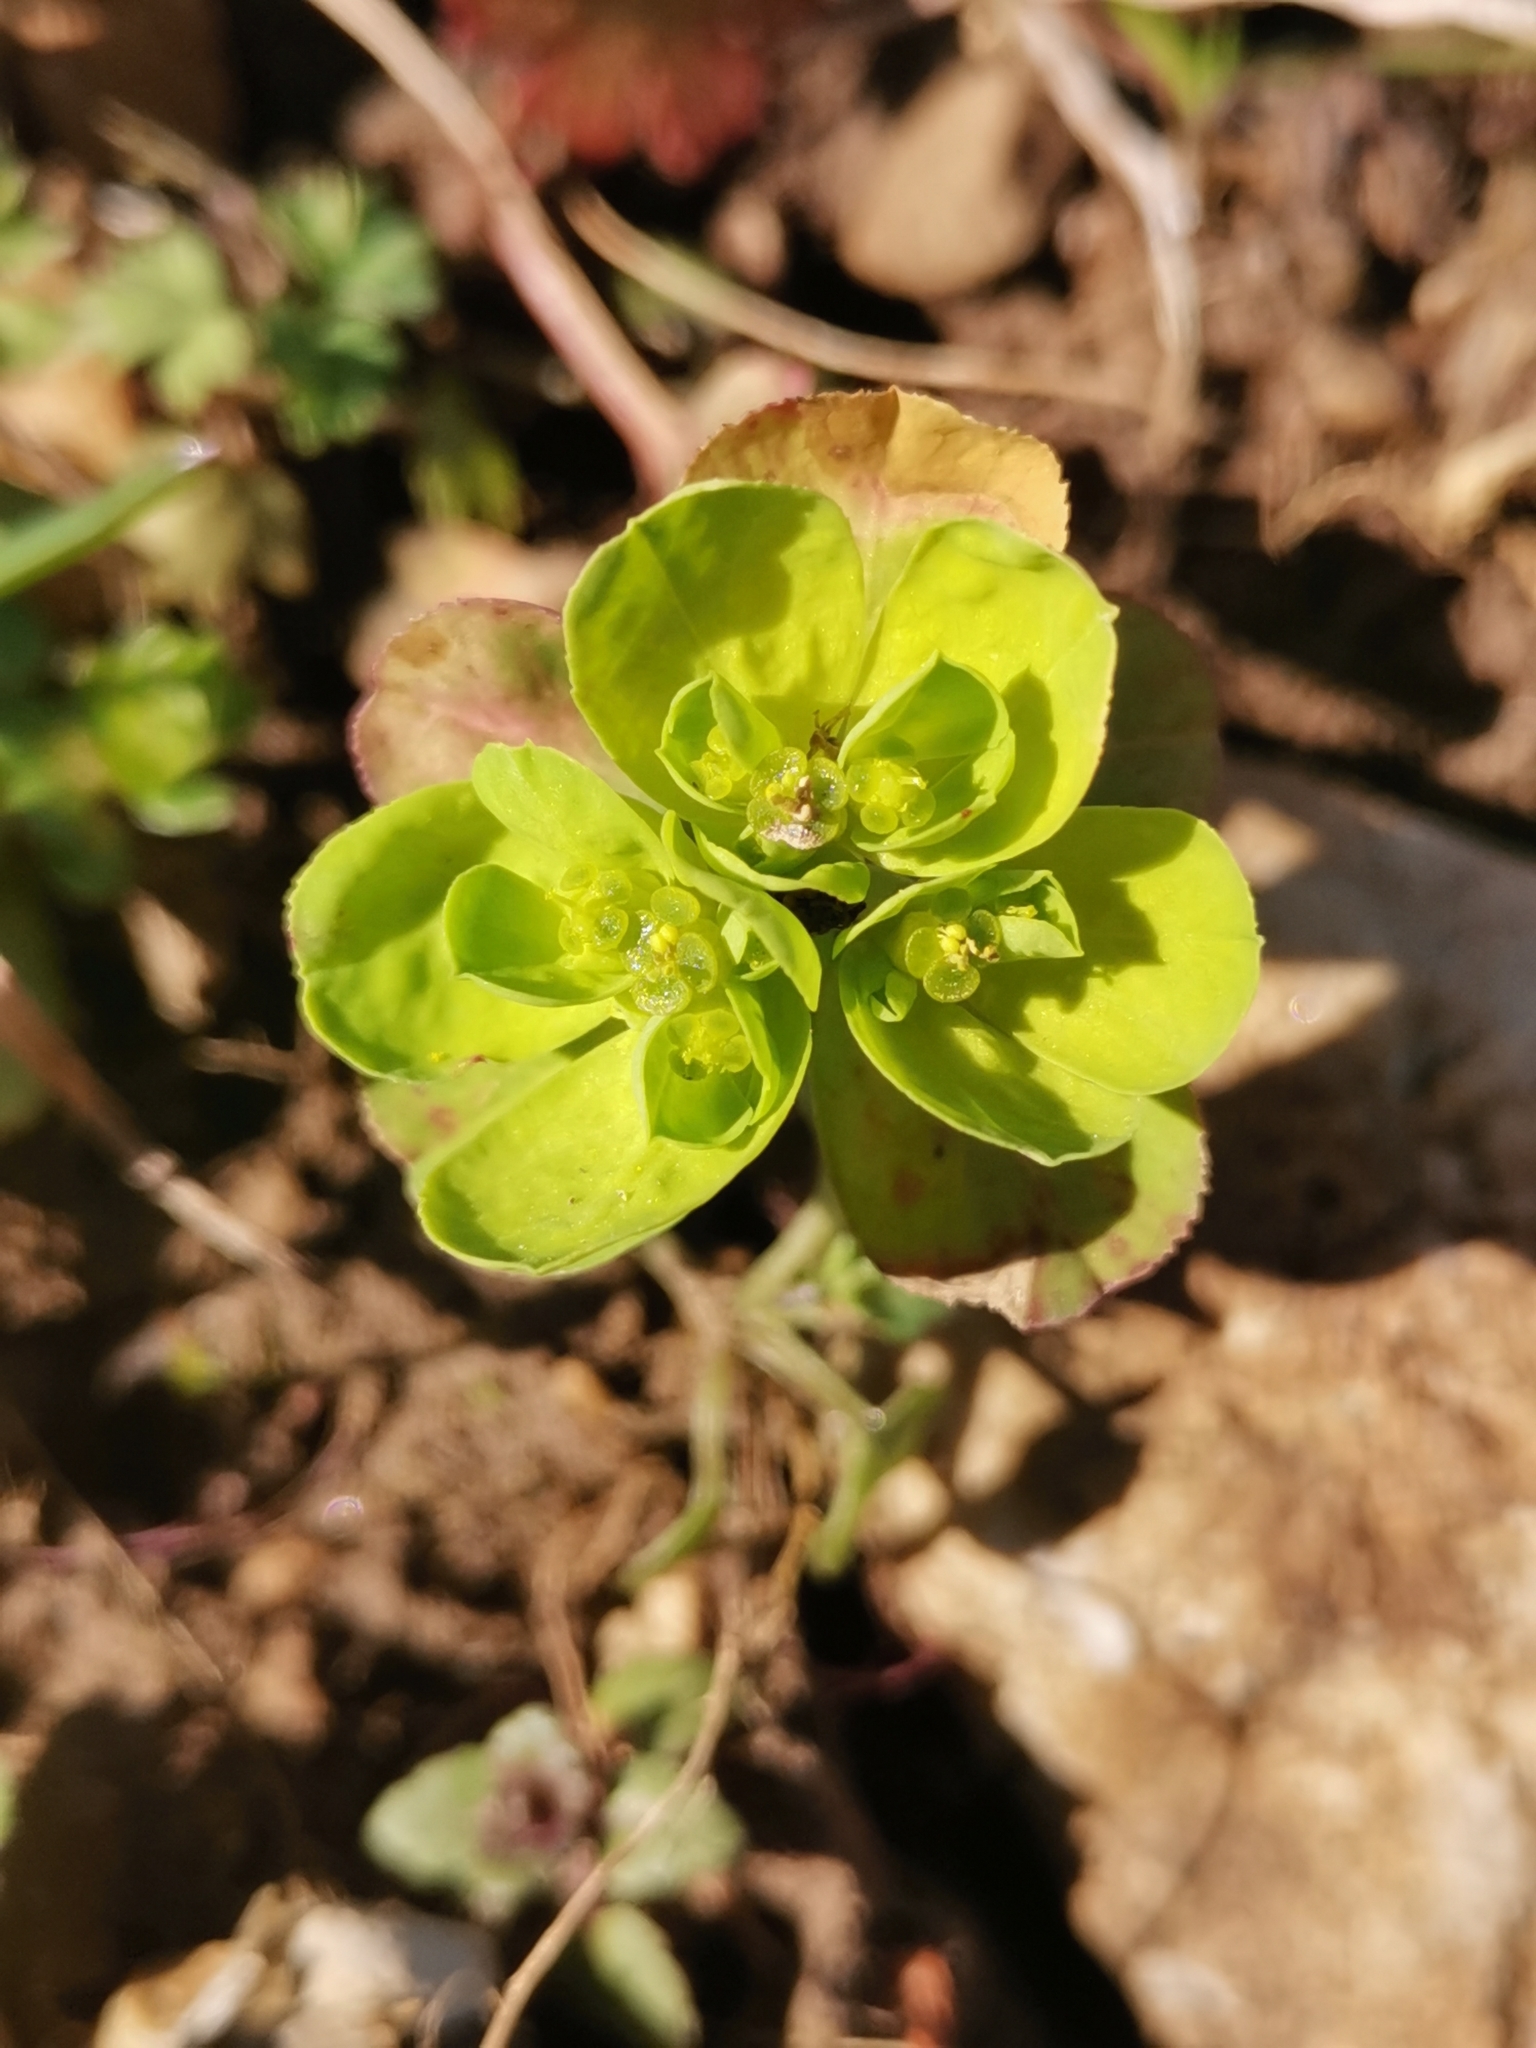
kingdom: Plantae
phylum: Tracheophyta
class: Magnoliopsida
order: Malpighiales
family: Euphorbiaceae
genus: Euphorbia
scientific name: Euphorbia helioscopia
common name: Sun spurge
